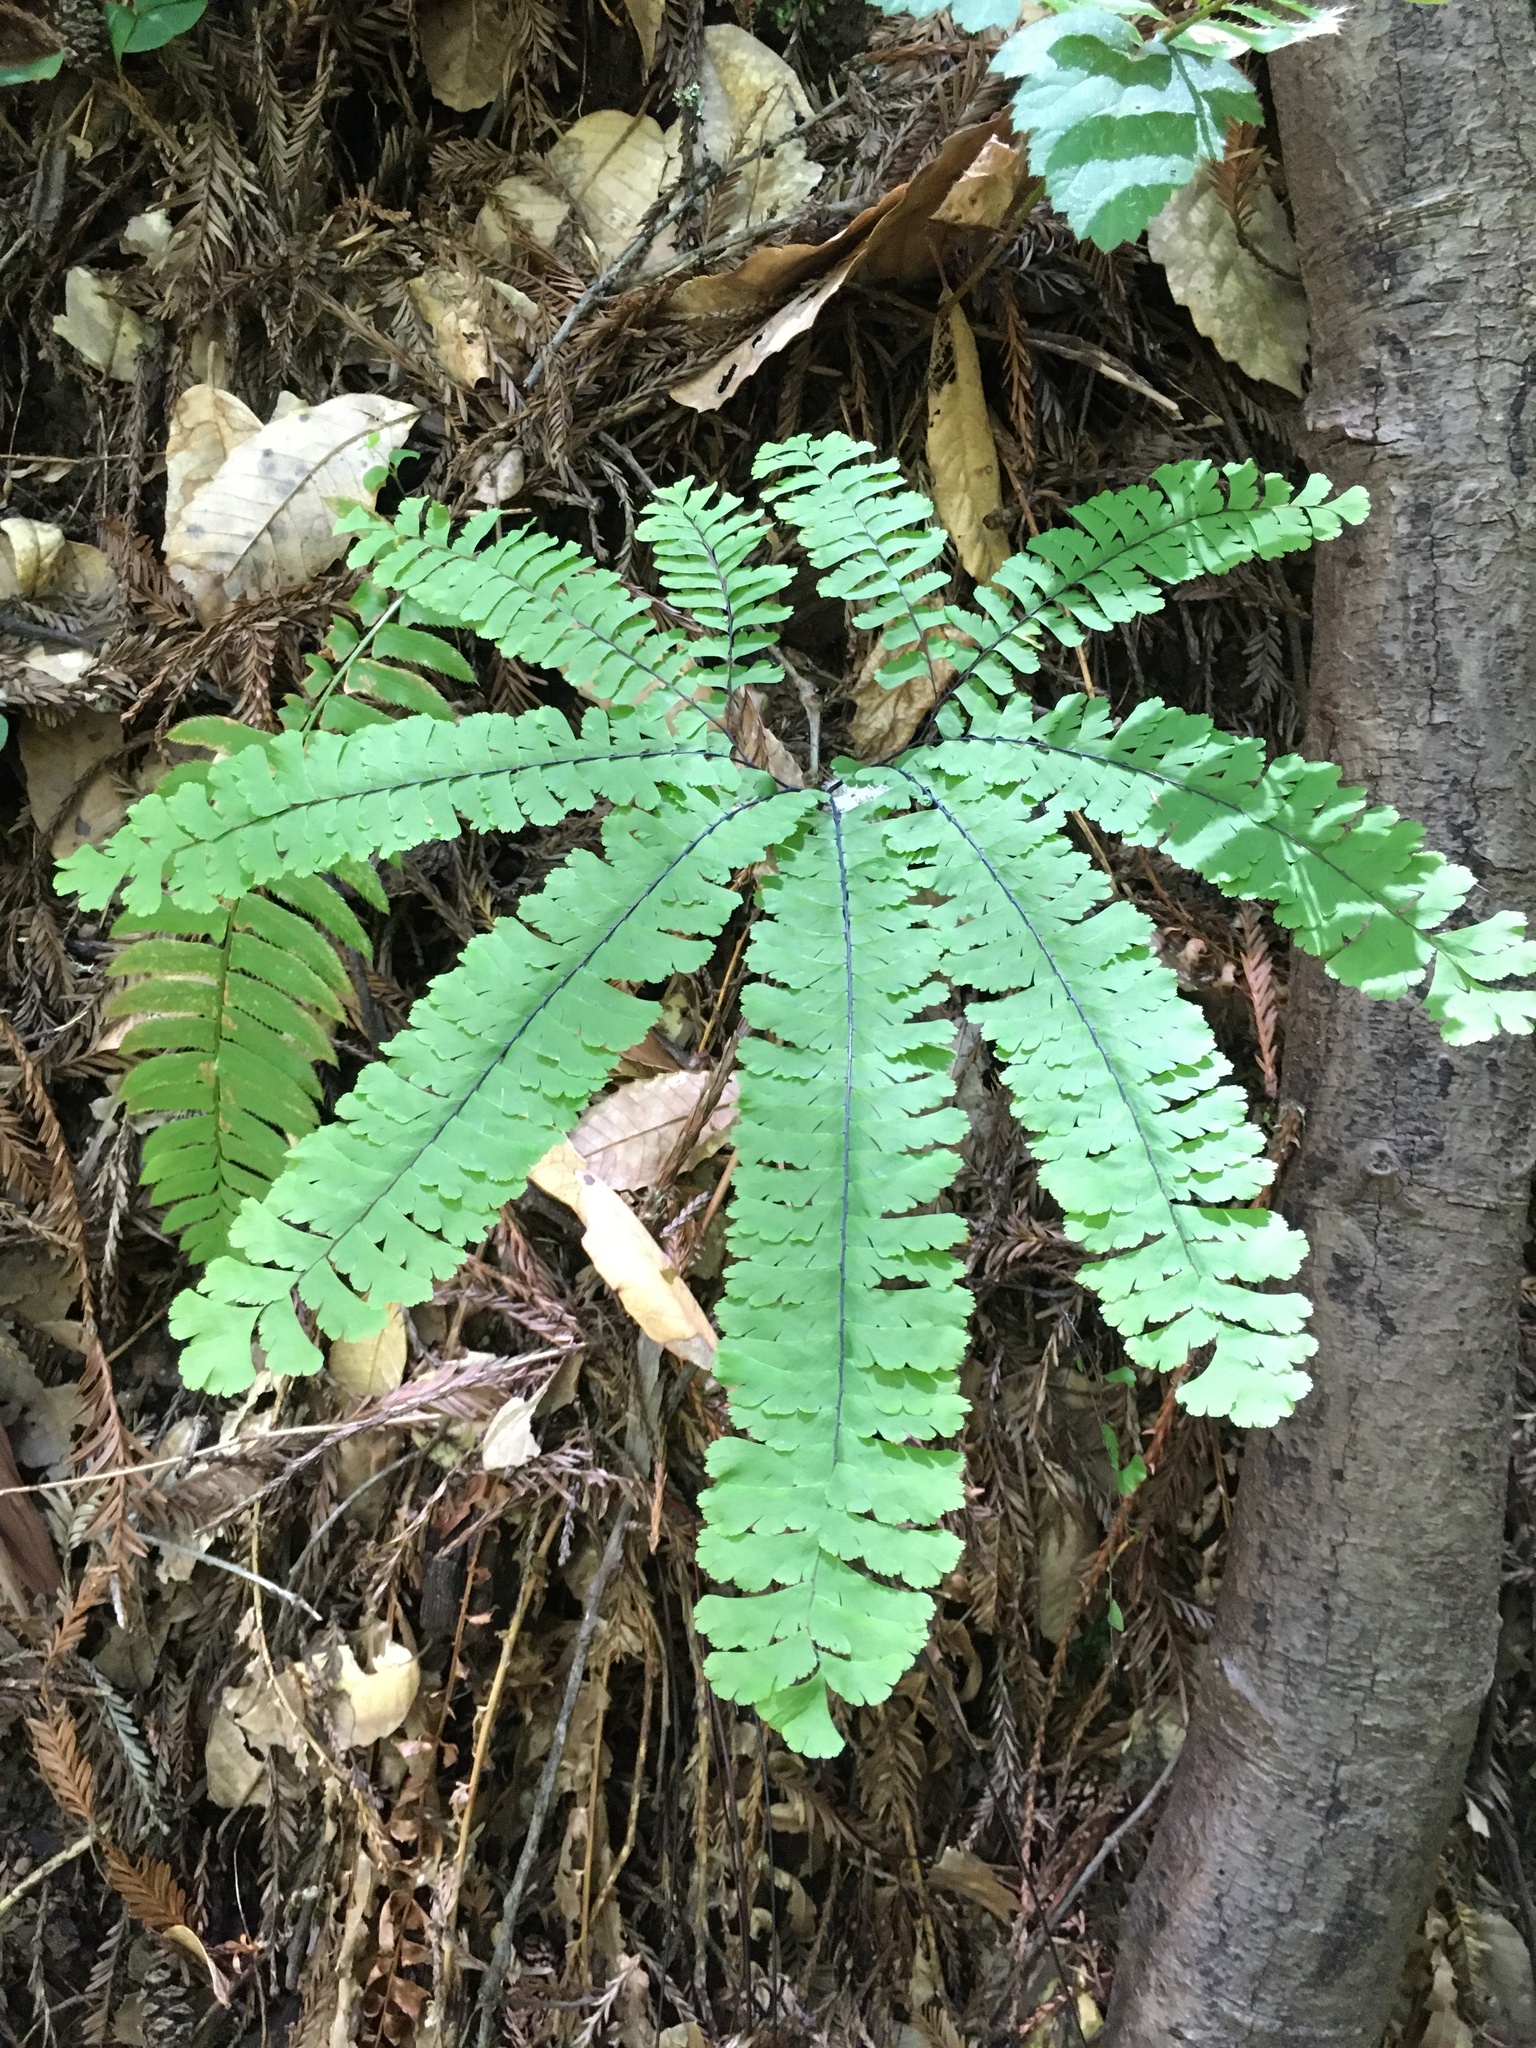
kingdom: Plantae
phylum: Tracheophyta
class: Polypodiopsida
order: Polypodiales
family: Pteridaceae
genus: Adiantum
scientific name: Adiantum aleuticum
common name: Aleutian maidenhair fern
